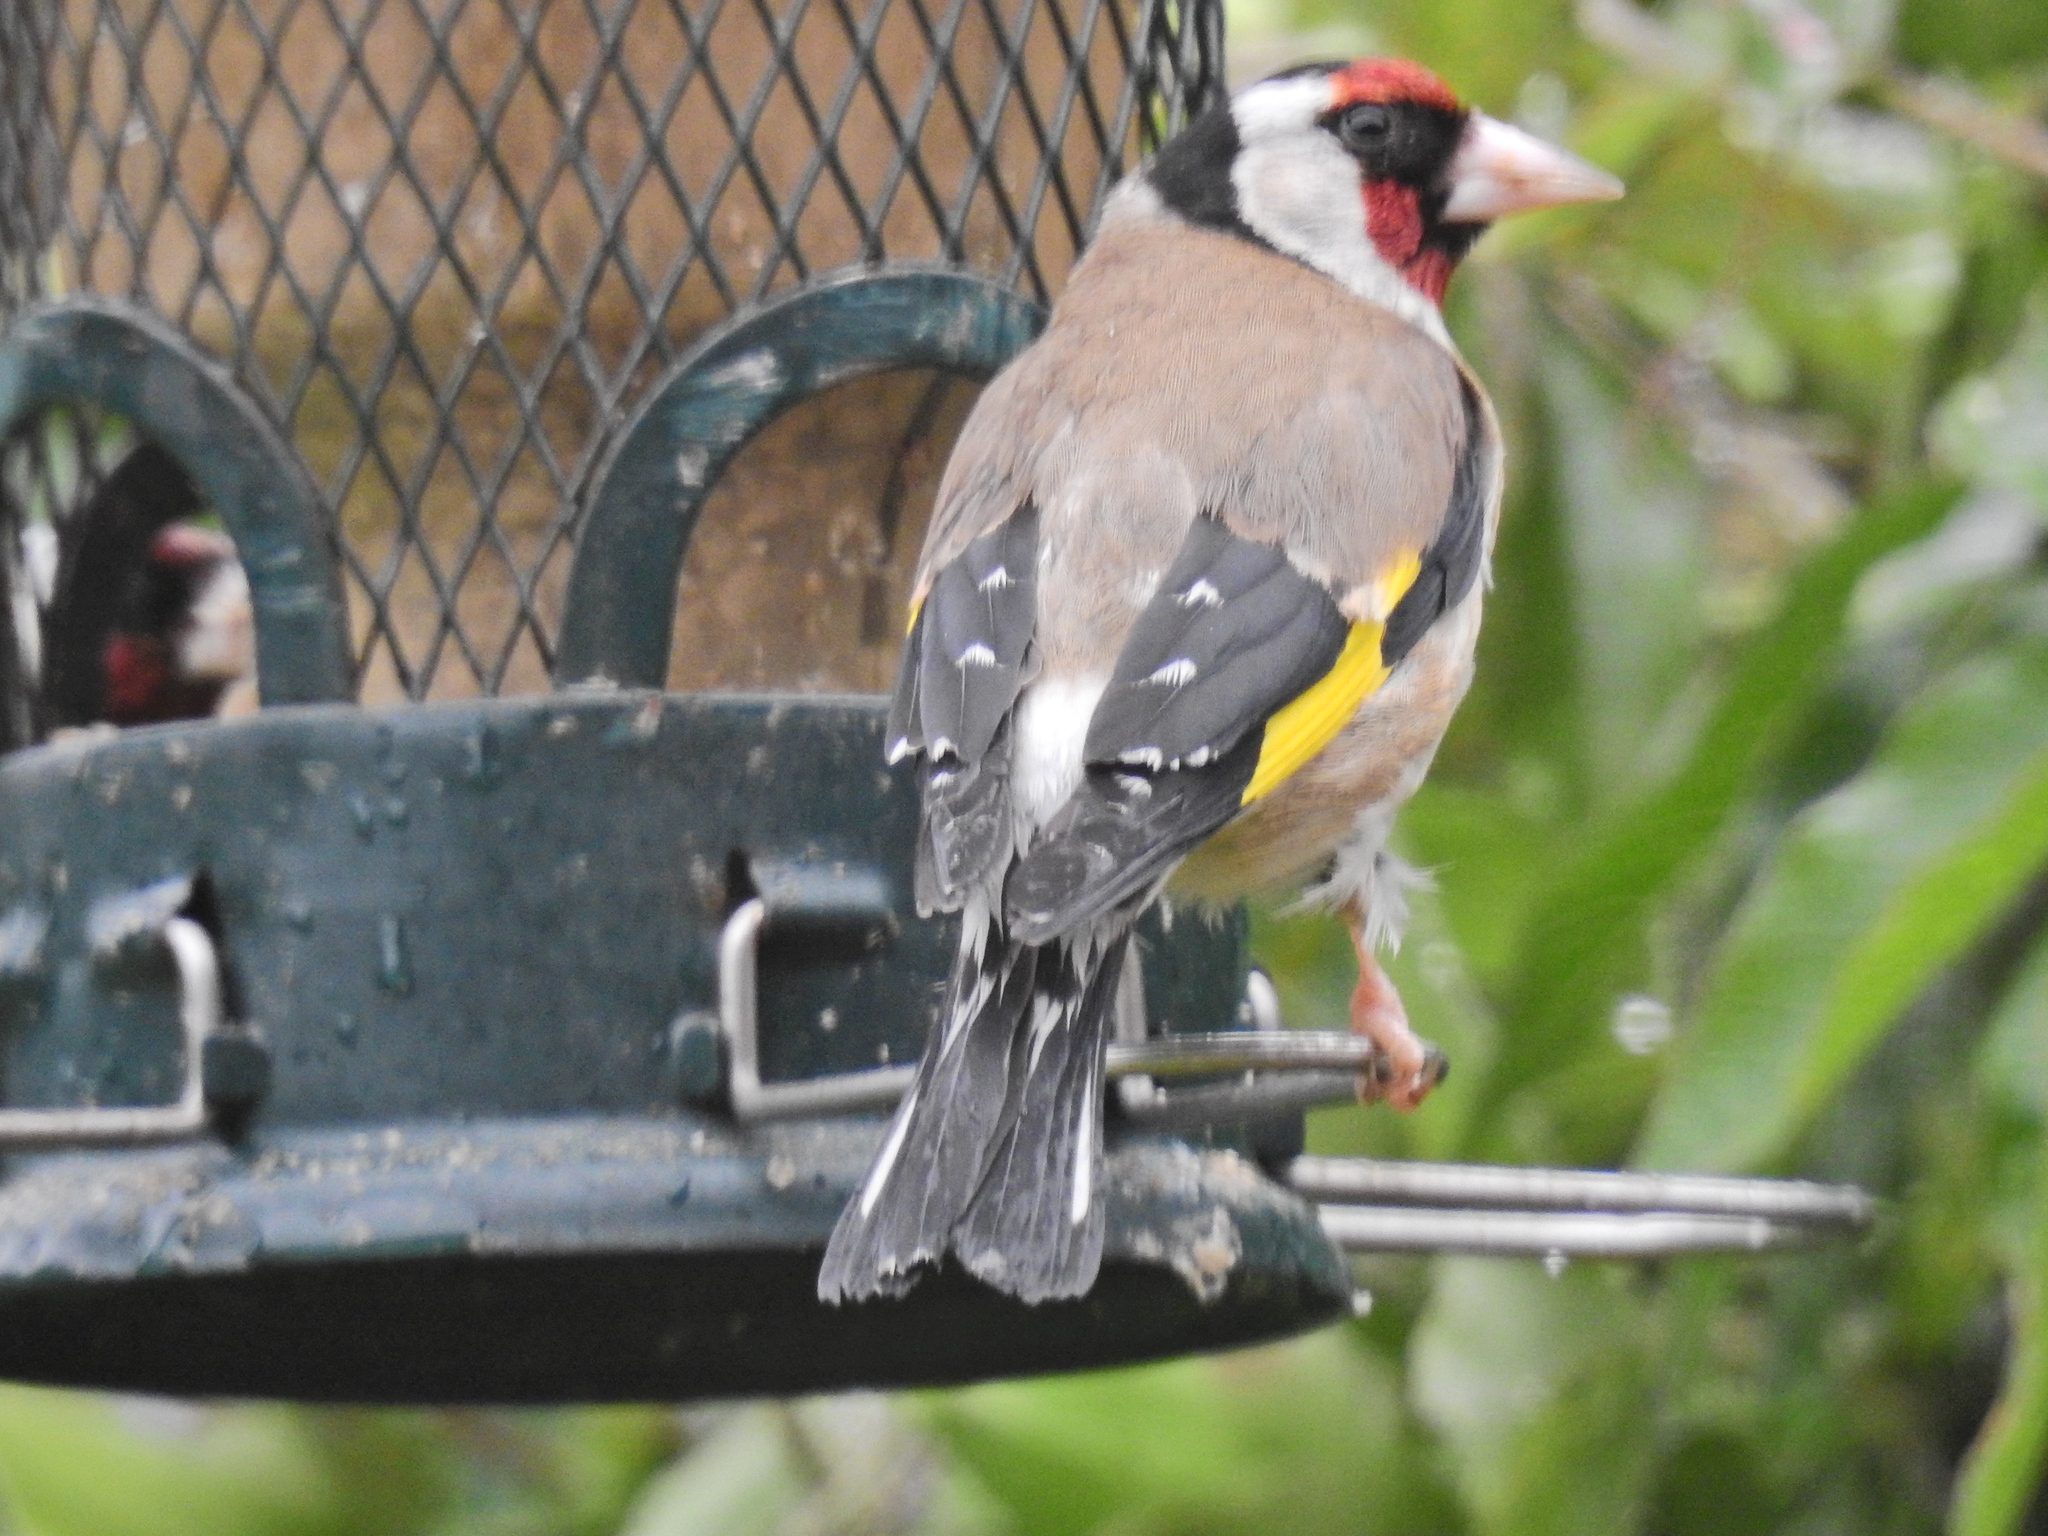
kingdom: Animalia
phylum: Chordata
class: Aves
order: Passeriformes
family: Fringillidae
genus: Carduelis
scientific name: Carduelis carduelis
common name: European goldfinch
